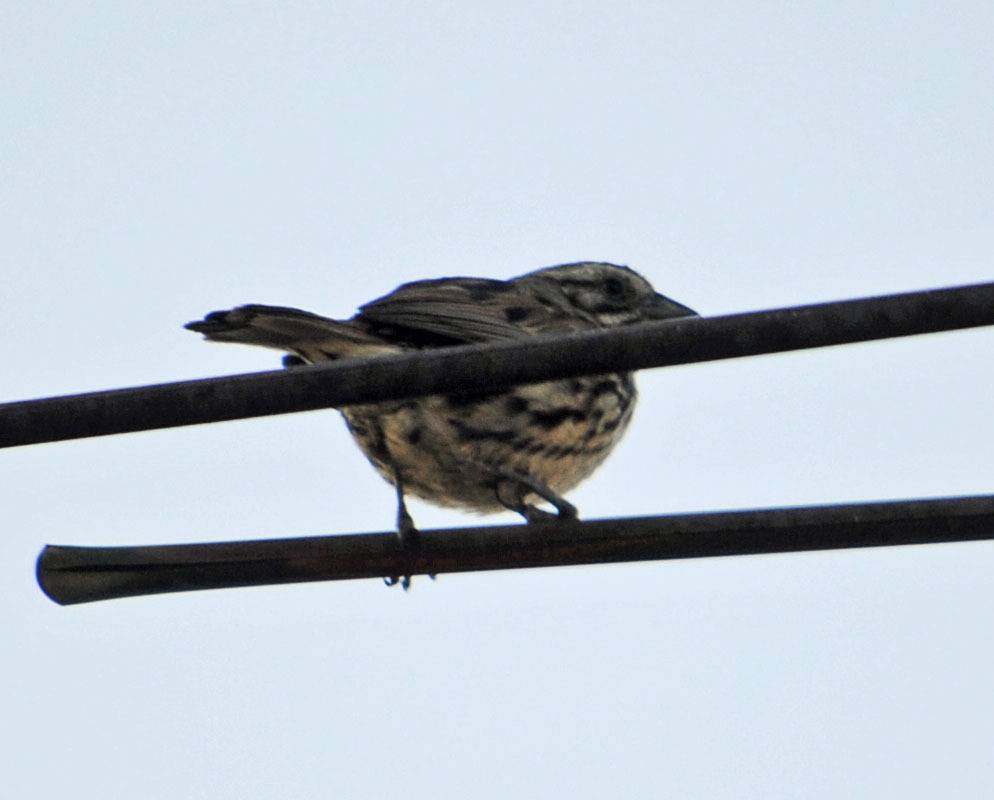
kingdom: Animalia
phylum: Chordata
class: Aves
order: Passeriformes
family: Passerellidae
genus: Melospiza
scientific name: Melospiza melodia
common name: Song sparrow
